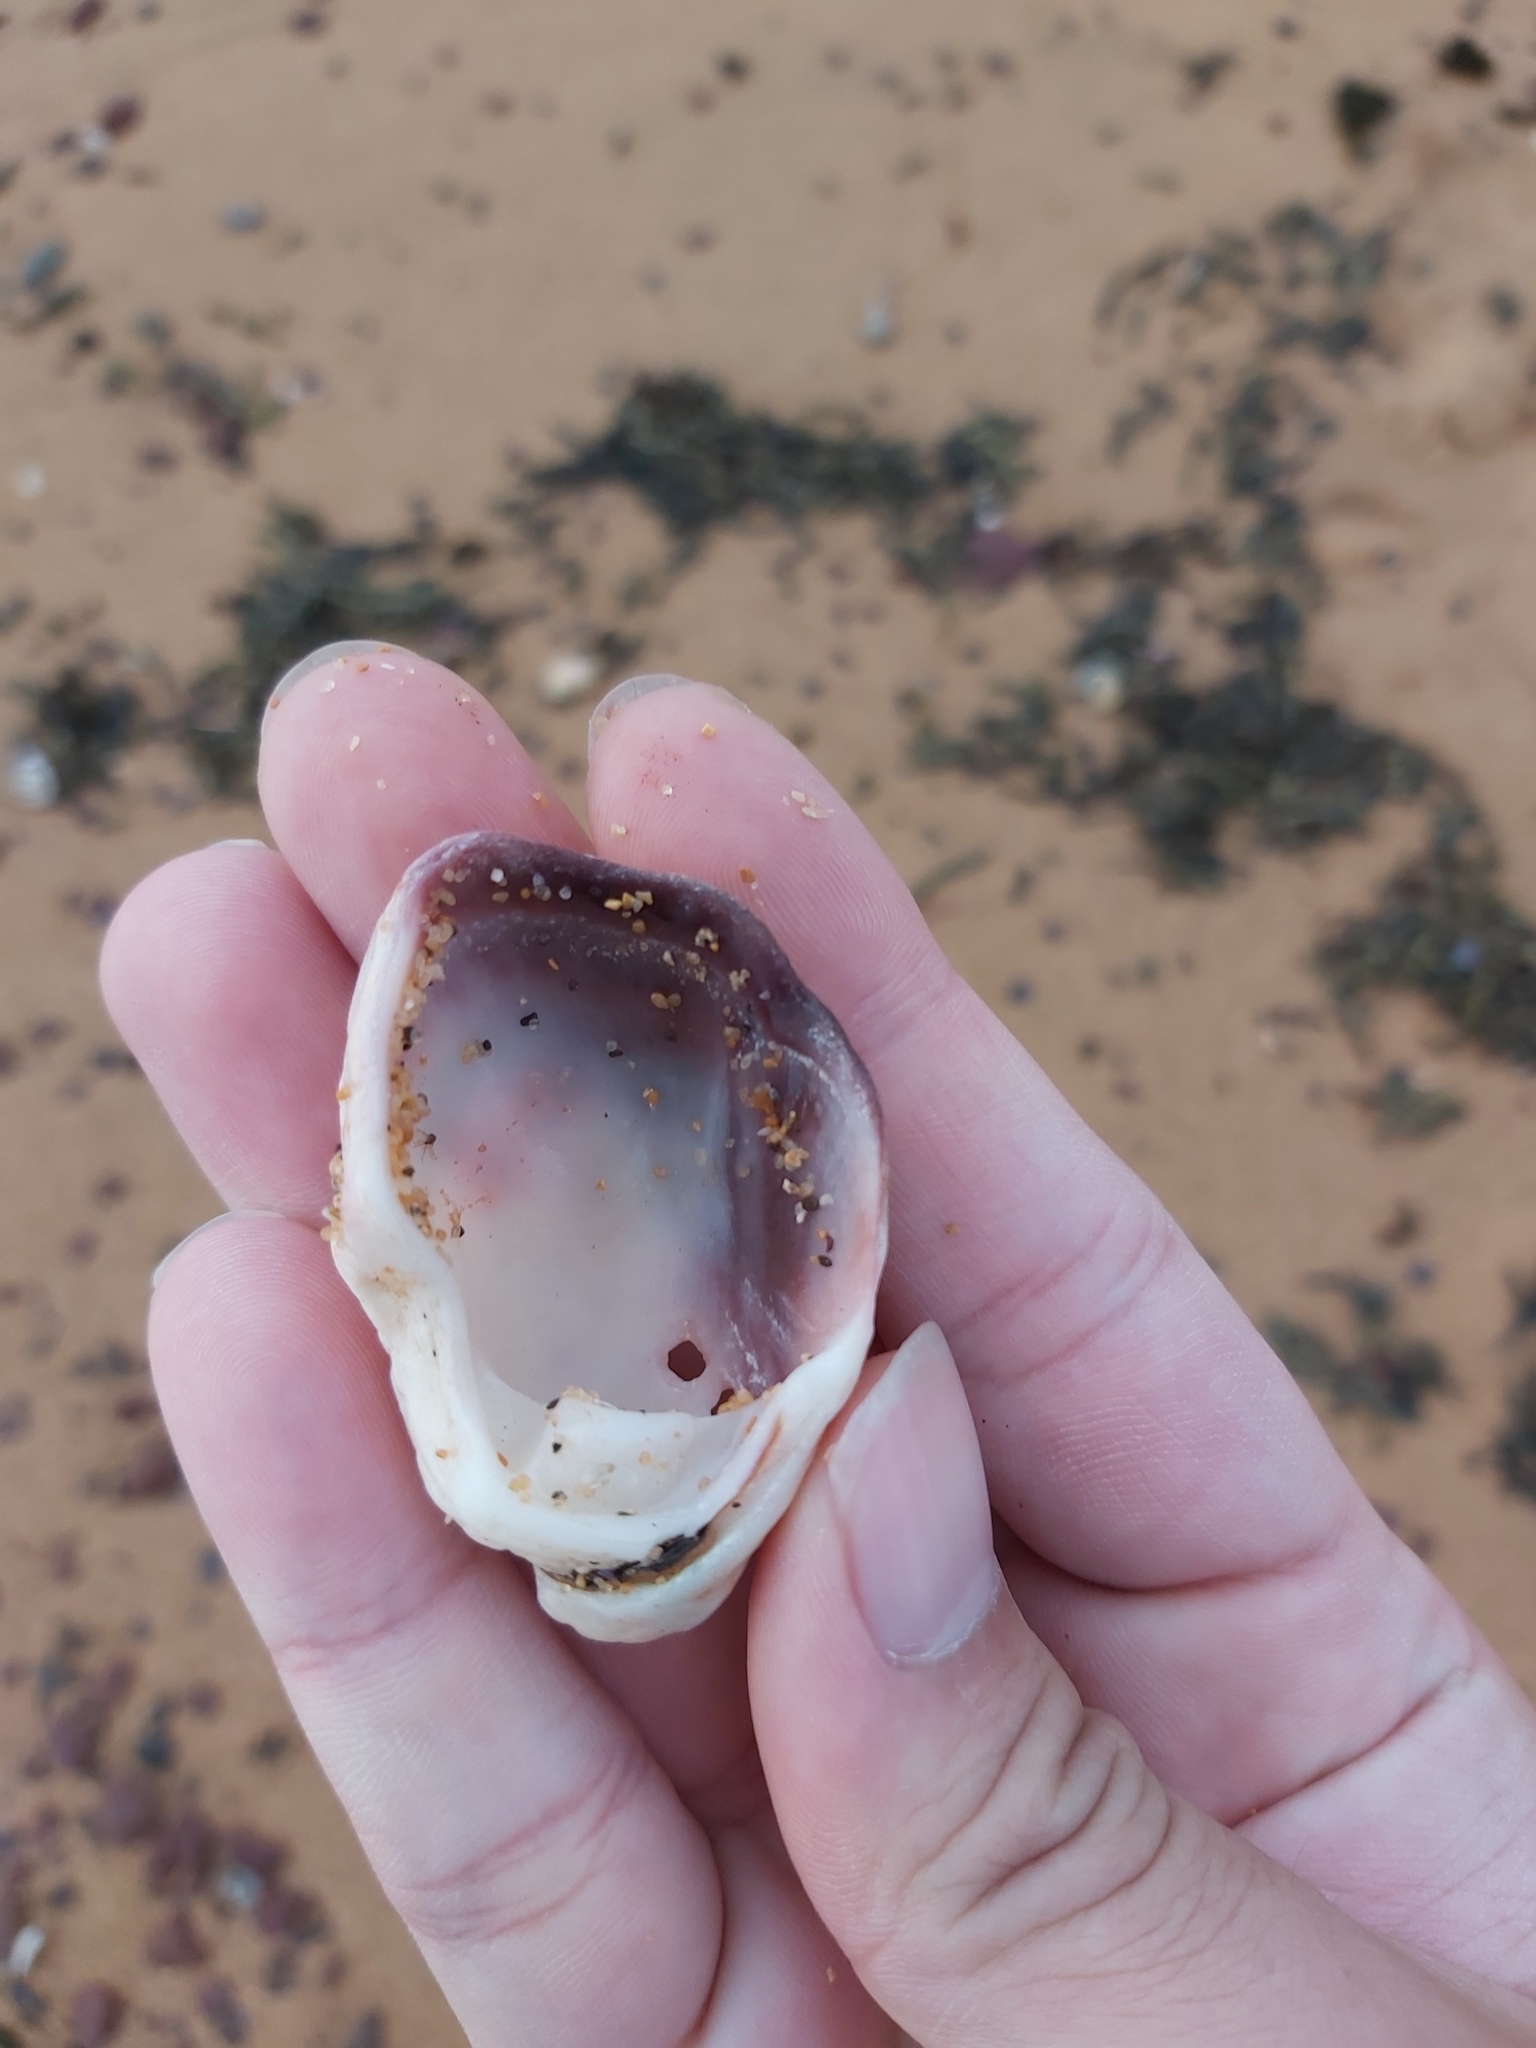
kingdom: Animalia
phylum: Mollusca
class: Bivalvia
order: Ostreida
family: Ostreidae
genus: Saccostrea
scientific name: Saccostrea glomerata
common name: Sydney cupped oyster
